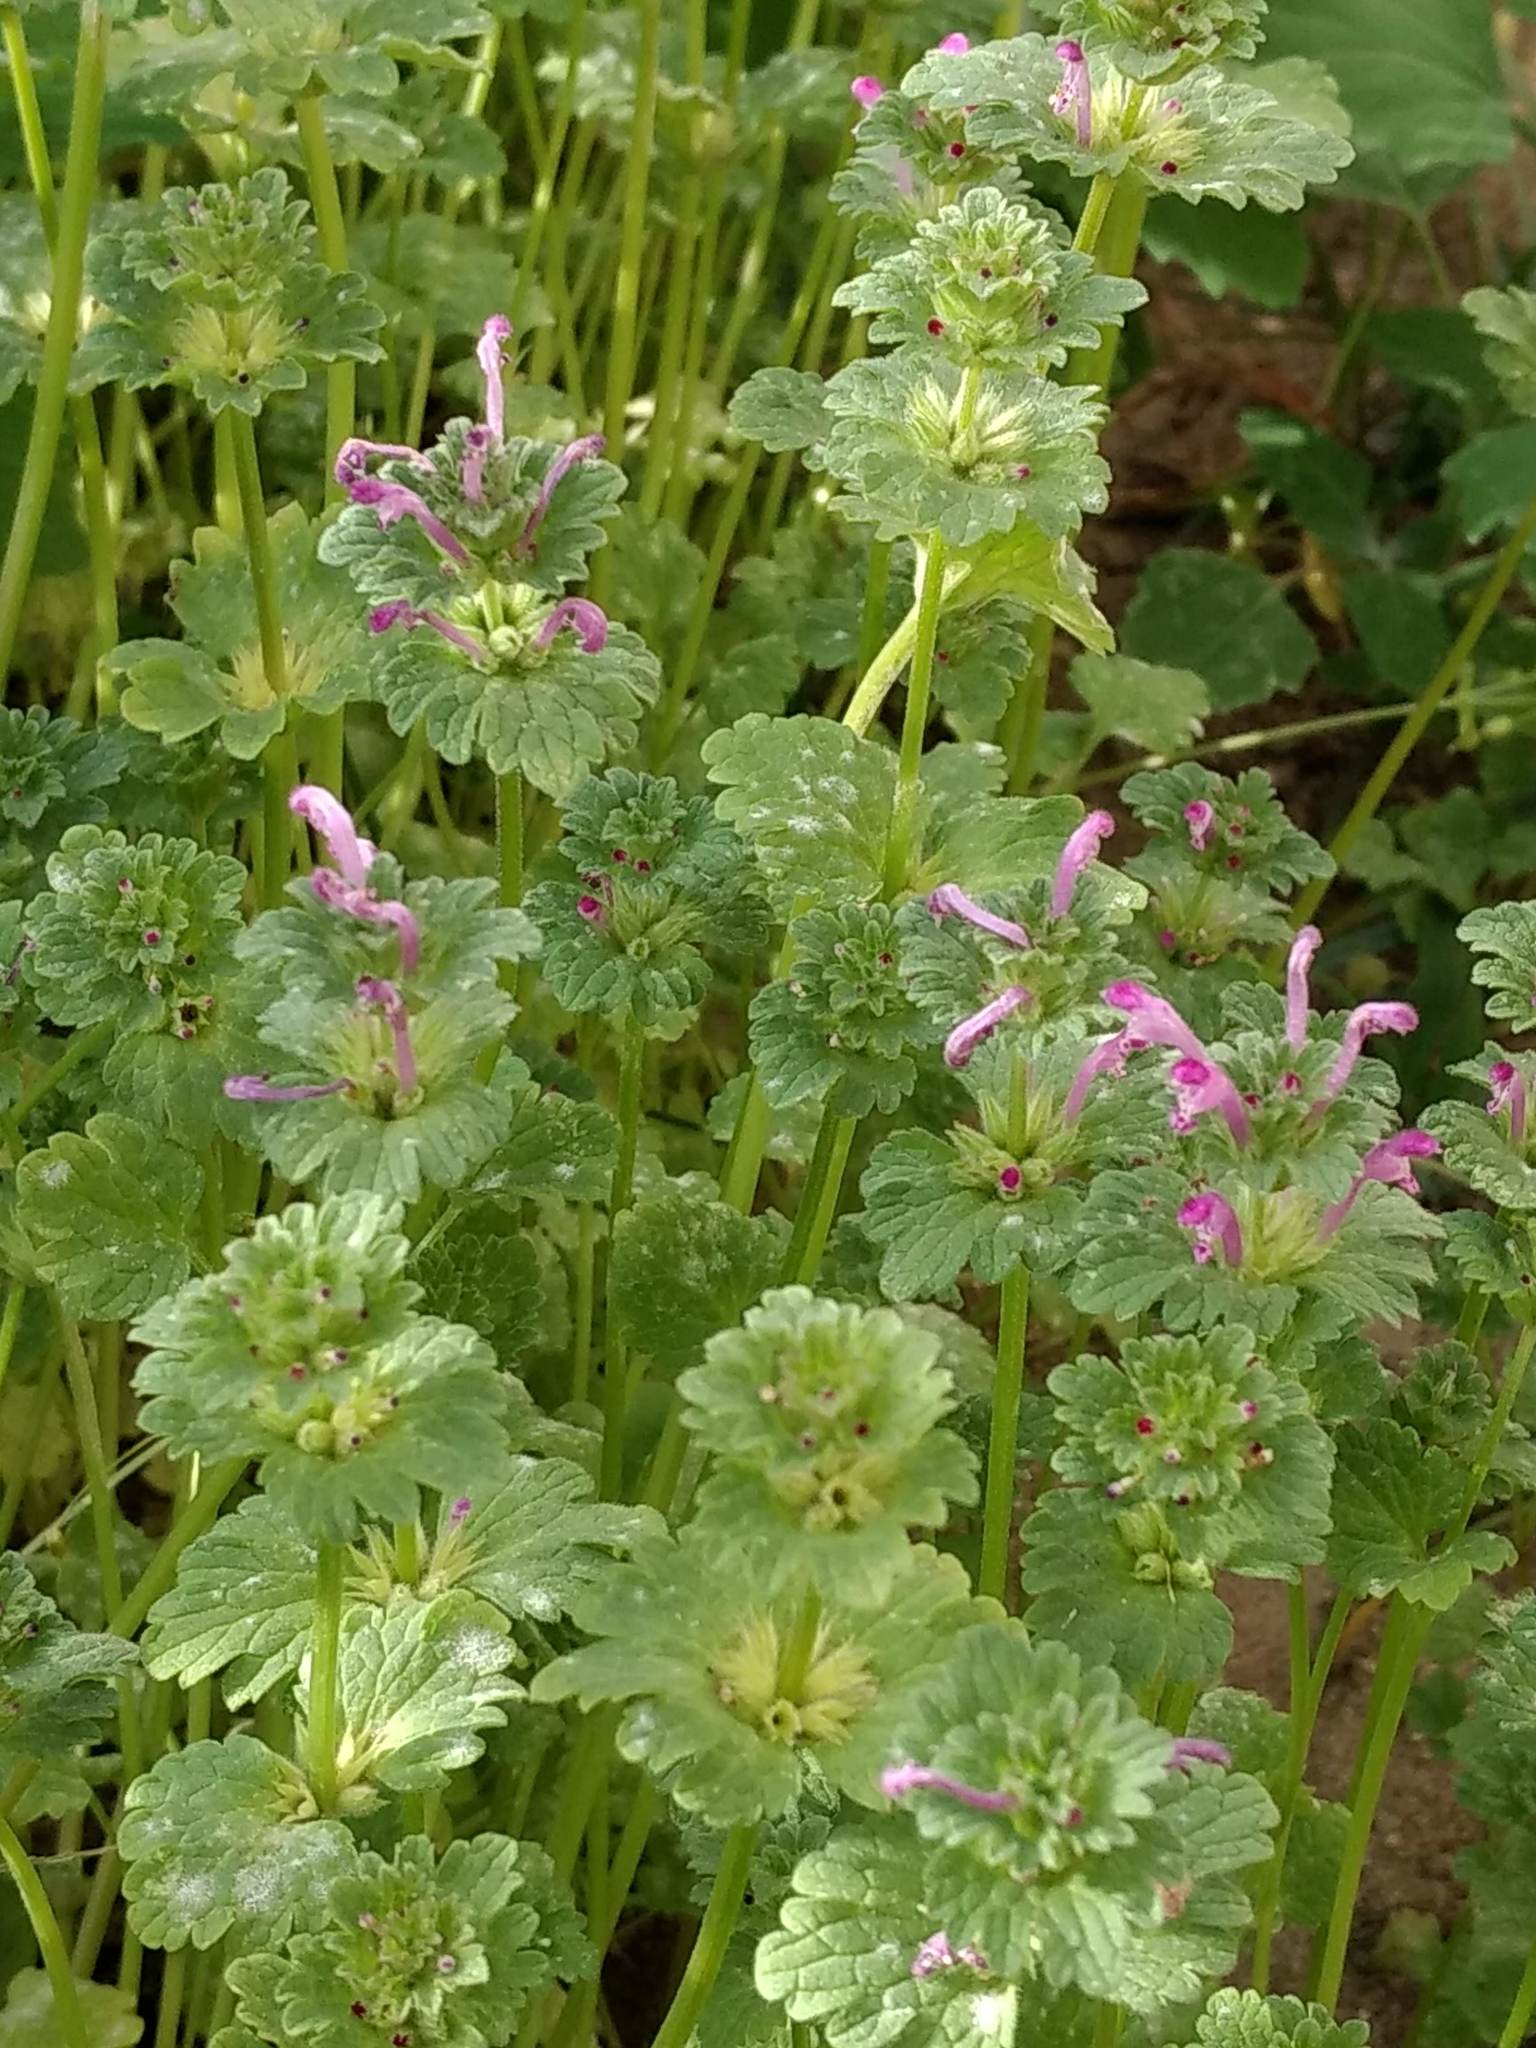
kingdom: Plantae
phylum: Tracheophyta
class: Magnoliopsida
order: Lamiales
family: Lamiaceae
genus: Lamium
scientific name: Lamium amplexicaule
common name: Henbit dead-nettle
